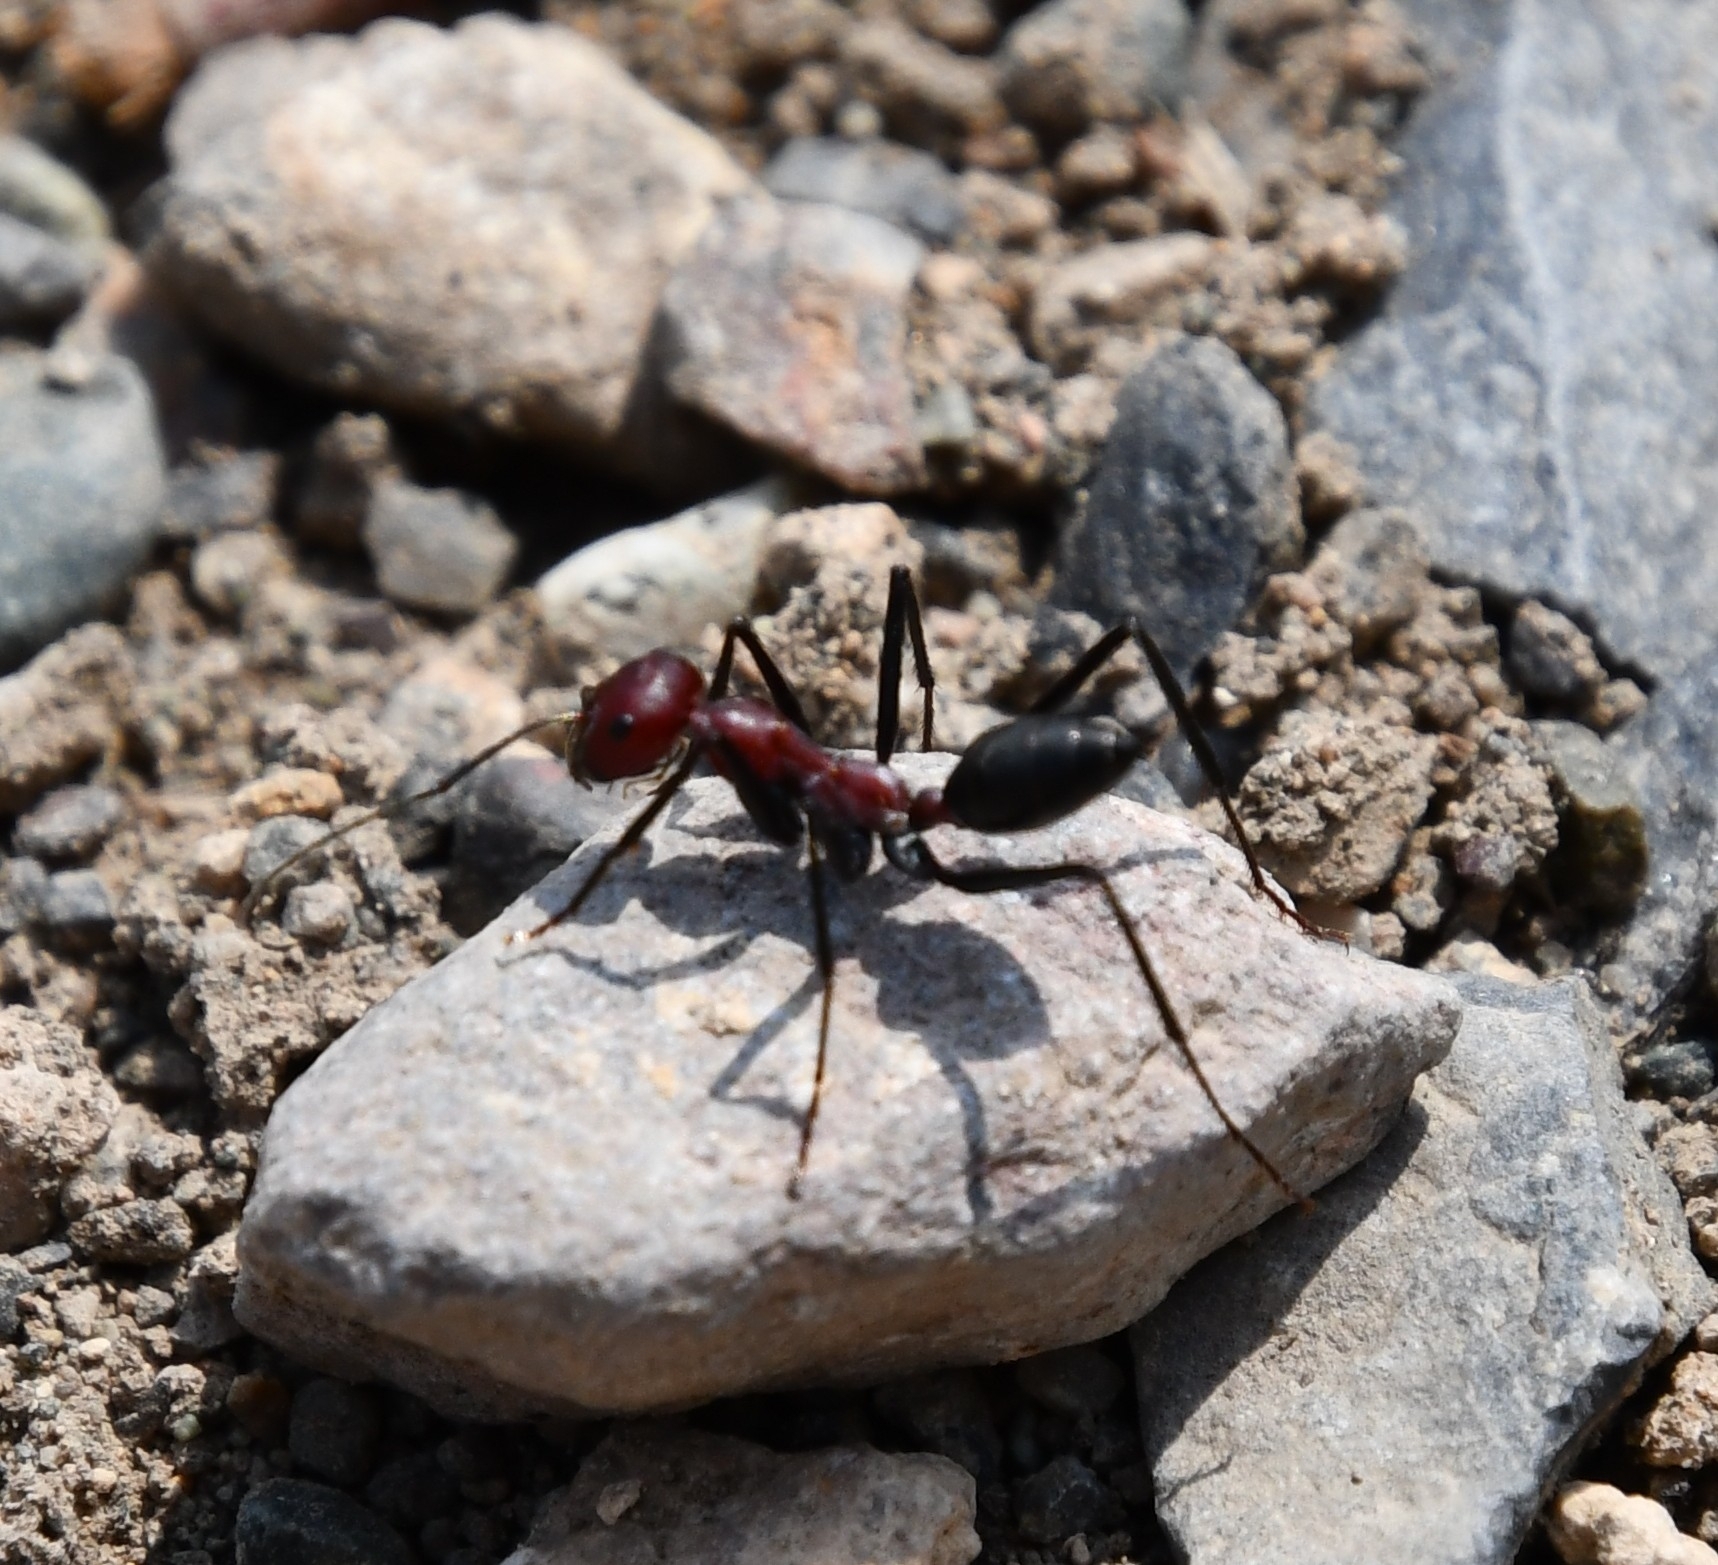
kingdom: Animalia
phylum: Arthropoda
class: Insecta
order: Hymenoptera
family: Formicidae
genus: Cataglyphis
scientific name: Cataglyphis nodus
